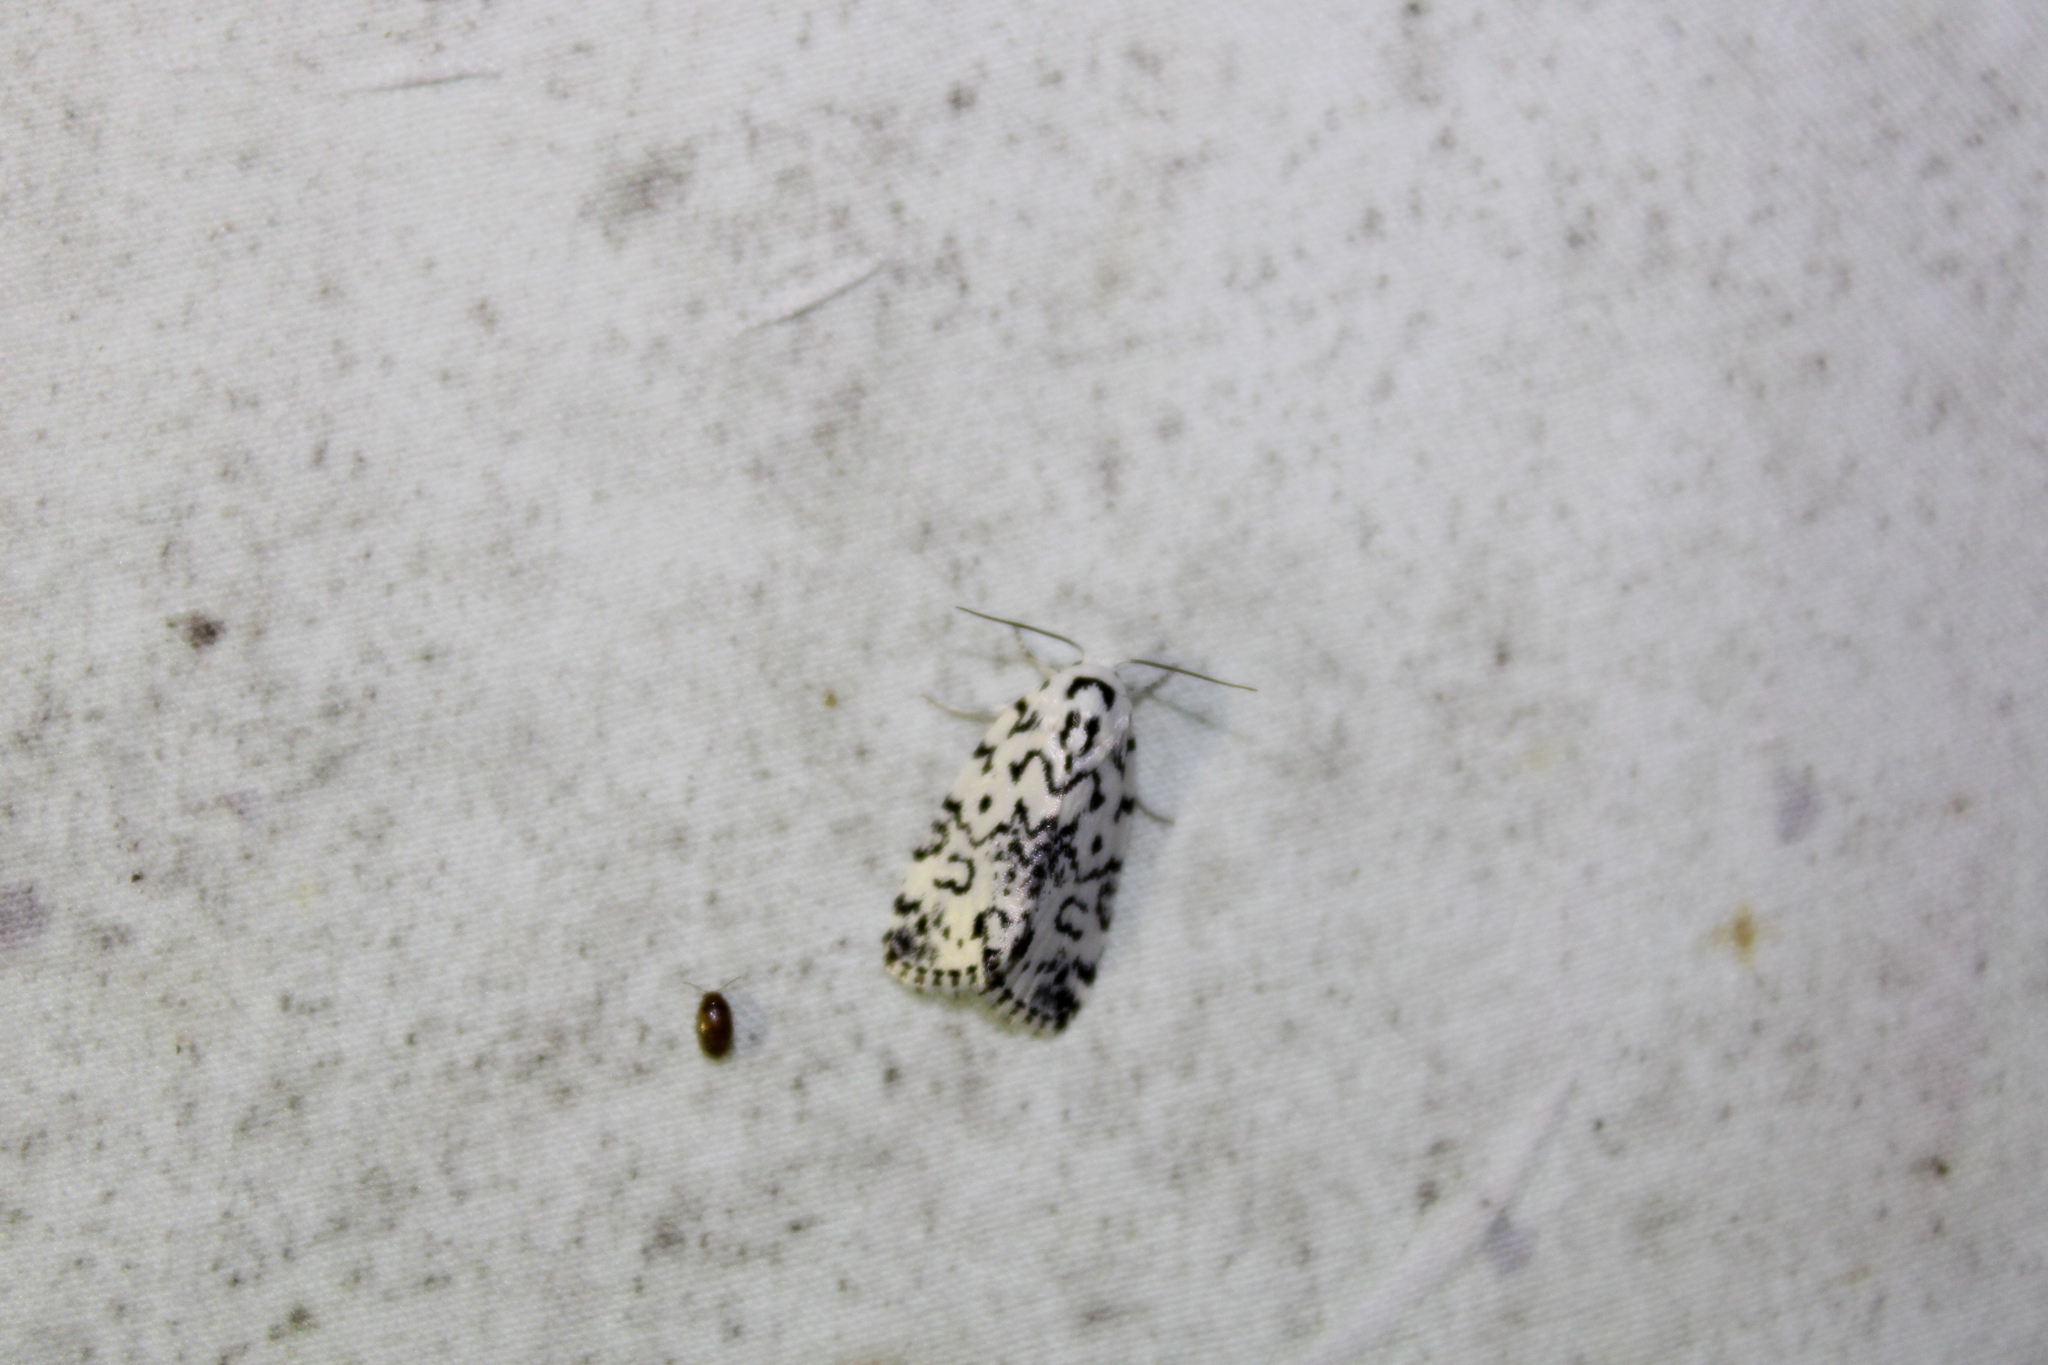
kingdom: Animalia
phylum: Arthropoda
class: Insecta
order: Lepidoptera
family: Noctuidae
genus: Polygrammate
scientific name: Polygrammate hebraeicum
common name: Hebrew moth
